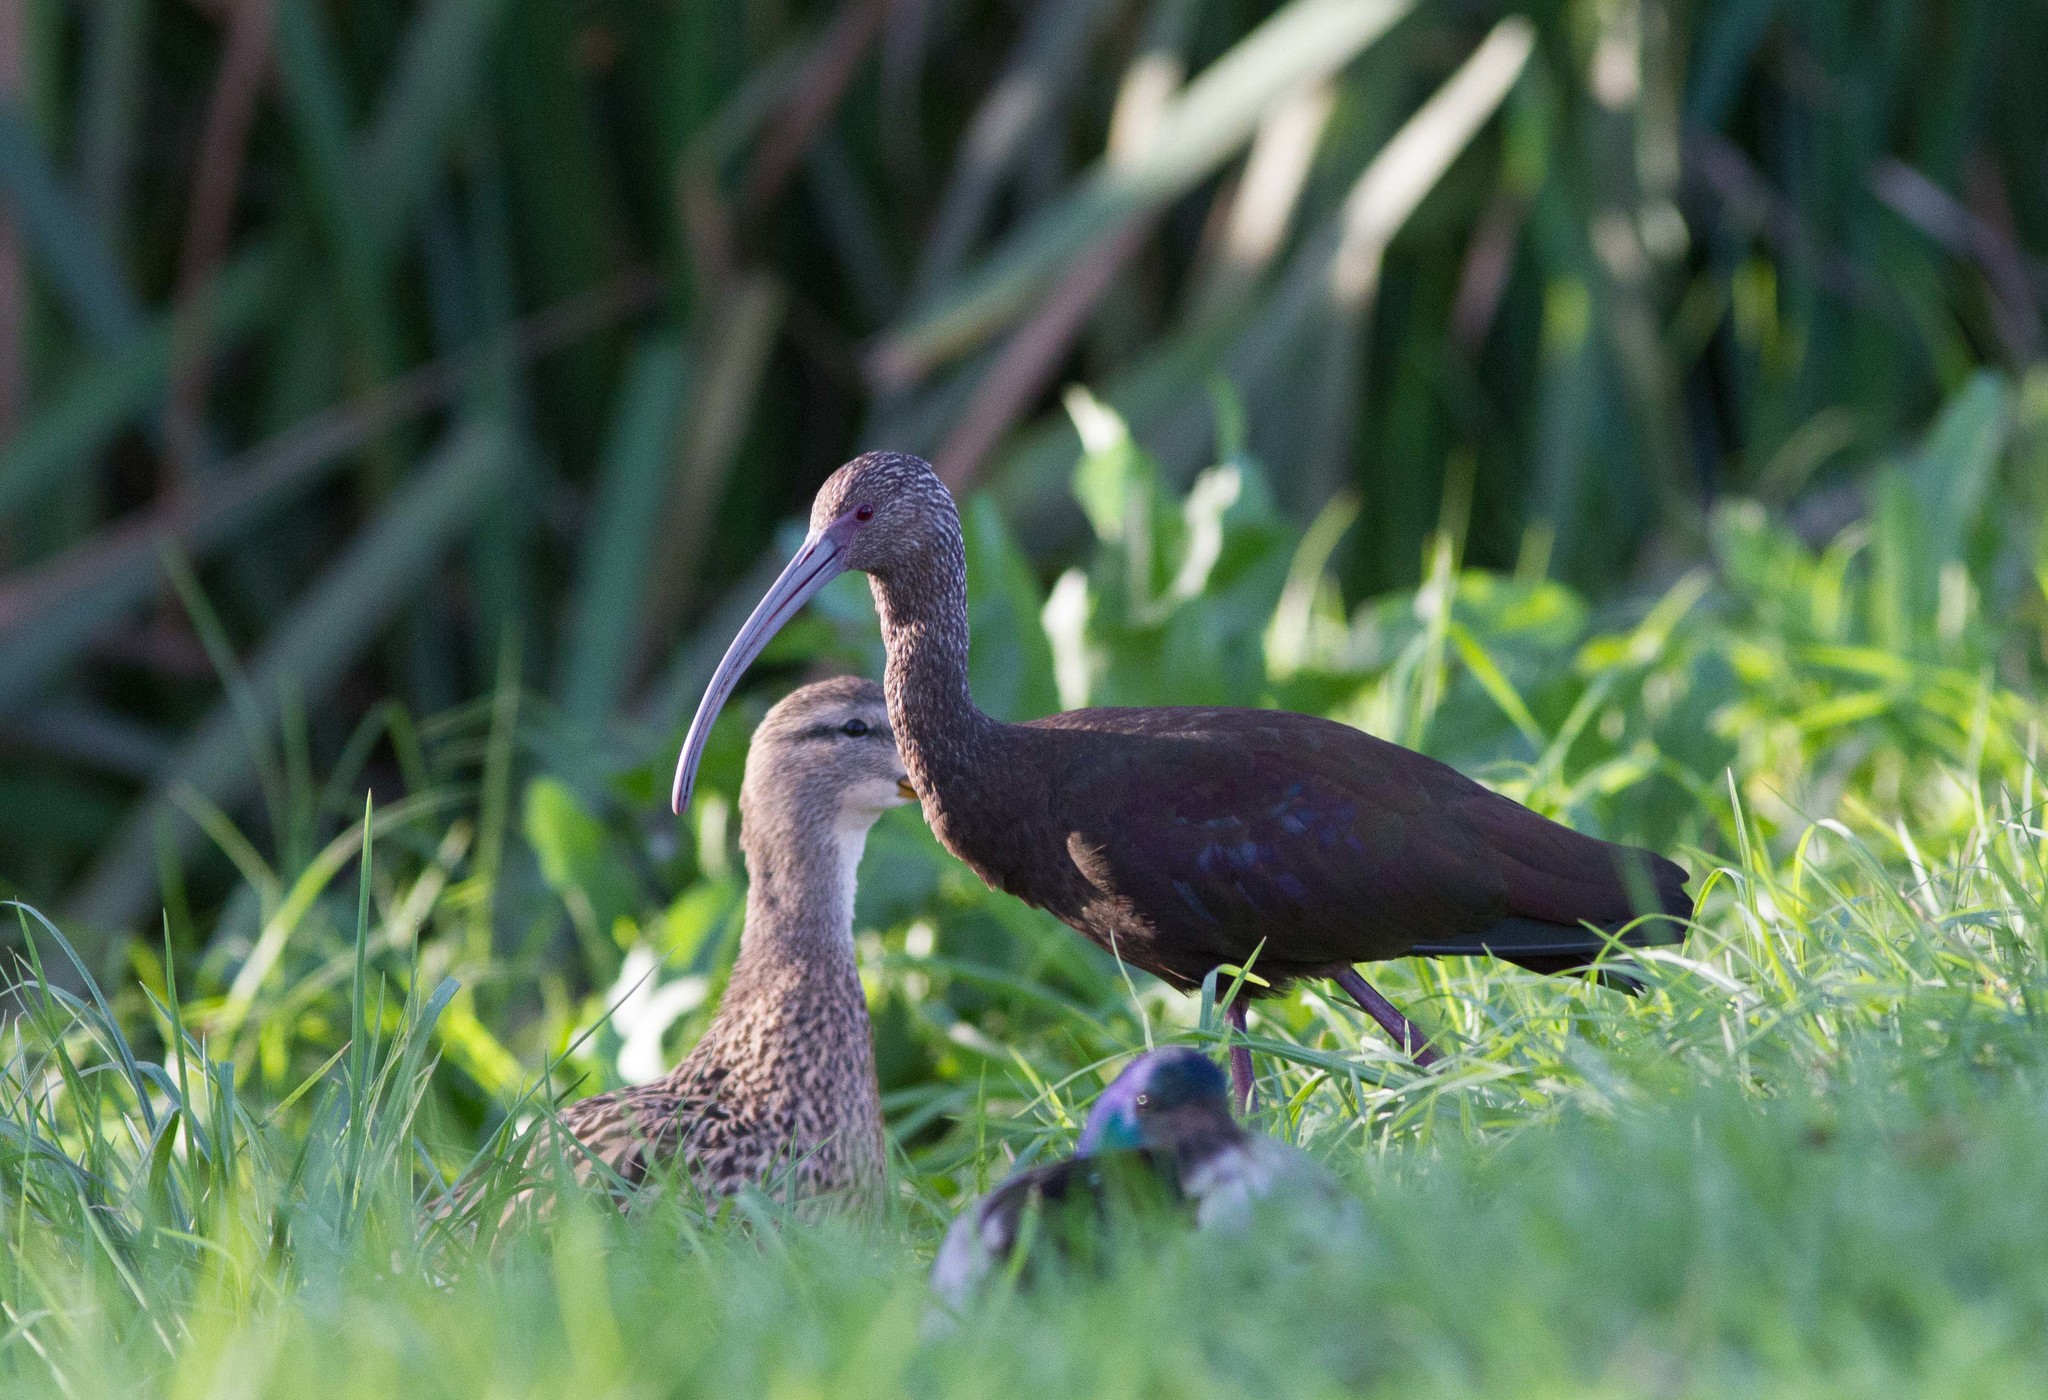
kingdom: Animalia
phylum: Chordata
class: Aves
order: Pelecaniformes
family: Threskiornithidae
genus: Plegadis
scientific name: Plegadis chihi
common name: White-faced ibis
